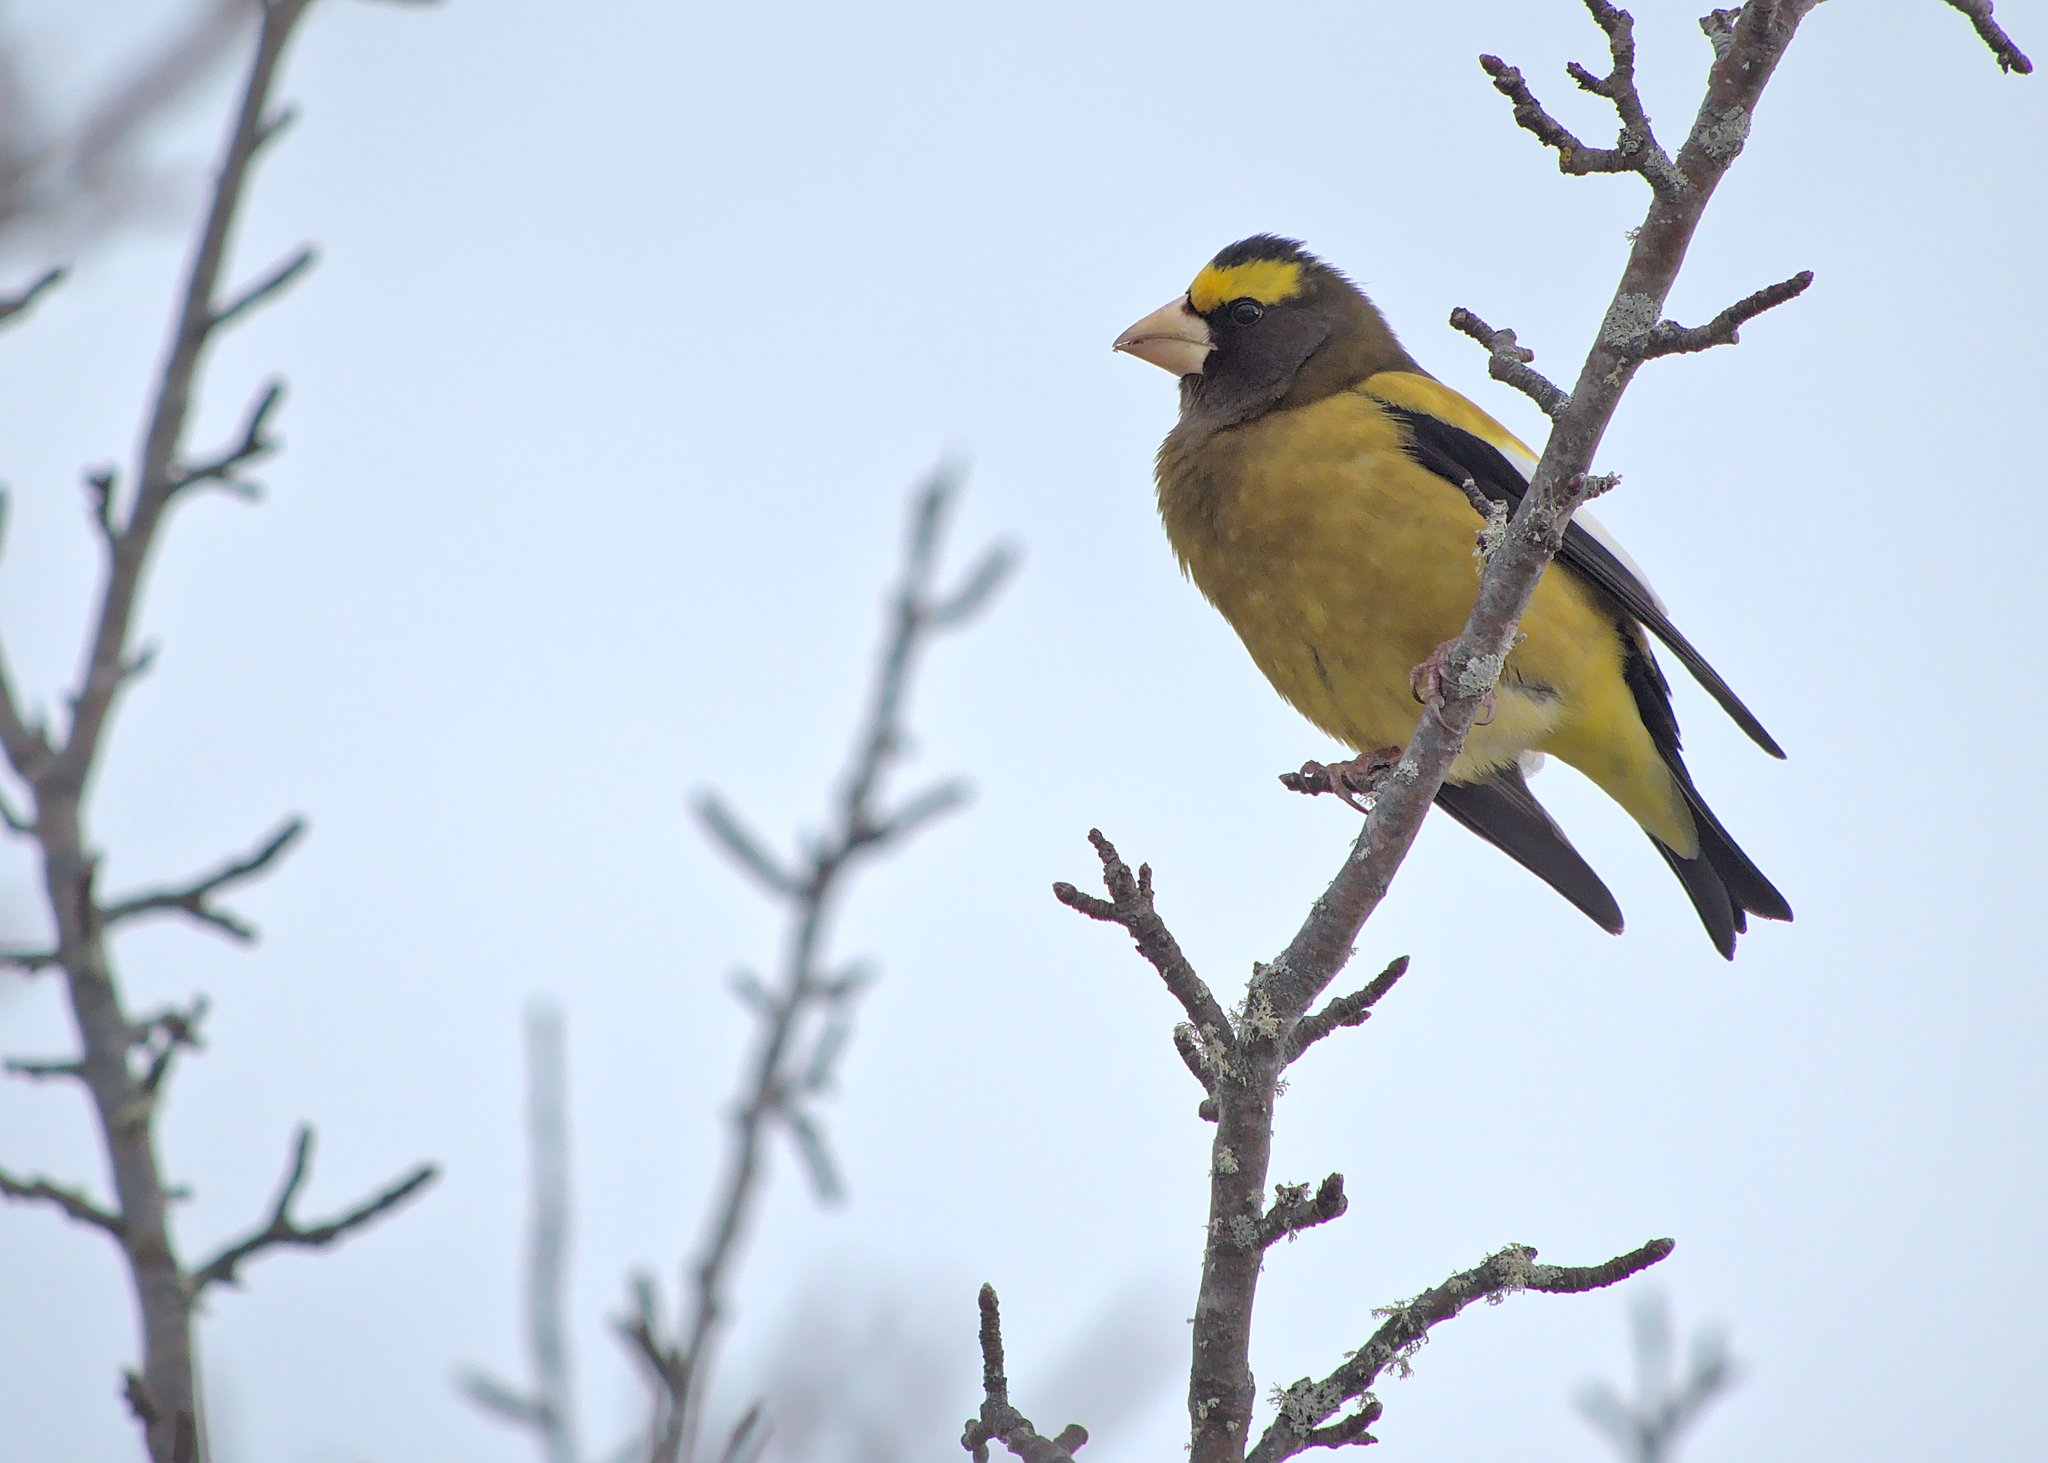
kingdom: Animalia
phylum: Chordata
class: Aves
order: Passeriformes
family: Fringillidae
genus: Hesperiphona
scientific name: Hesperiphona vespertina
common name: Evening grosbeak
